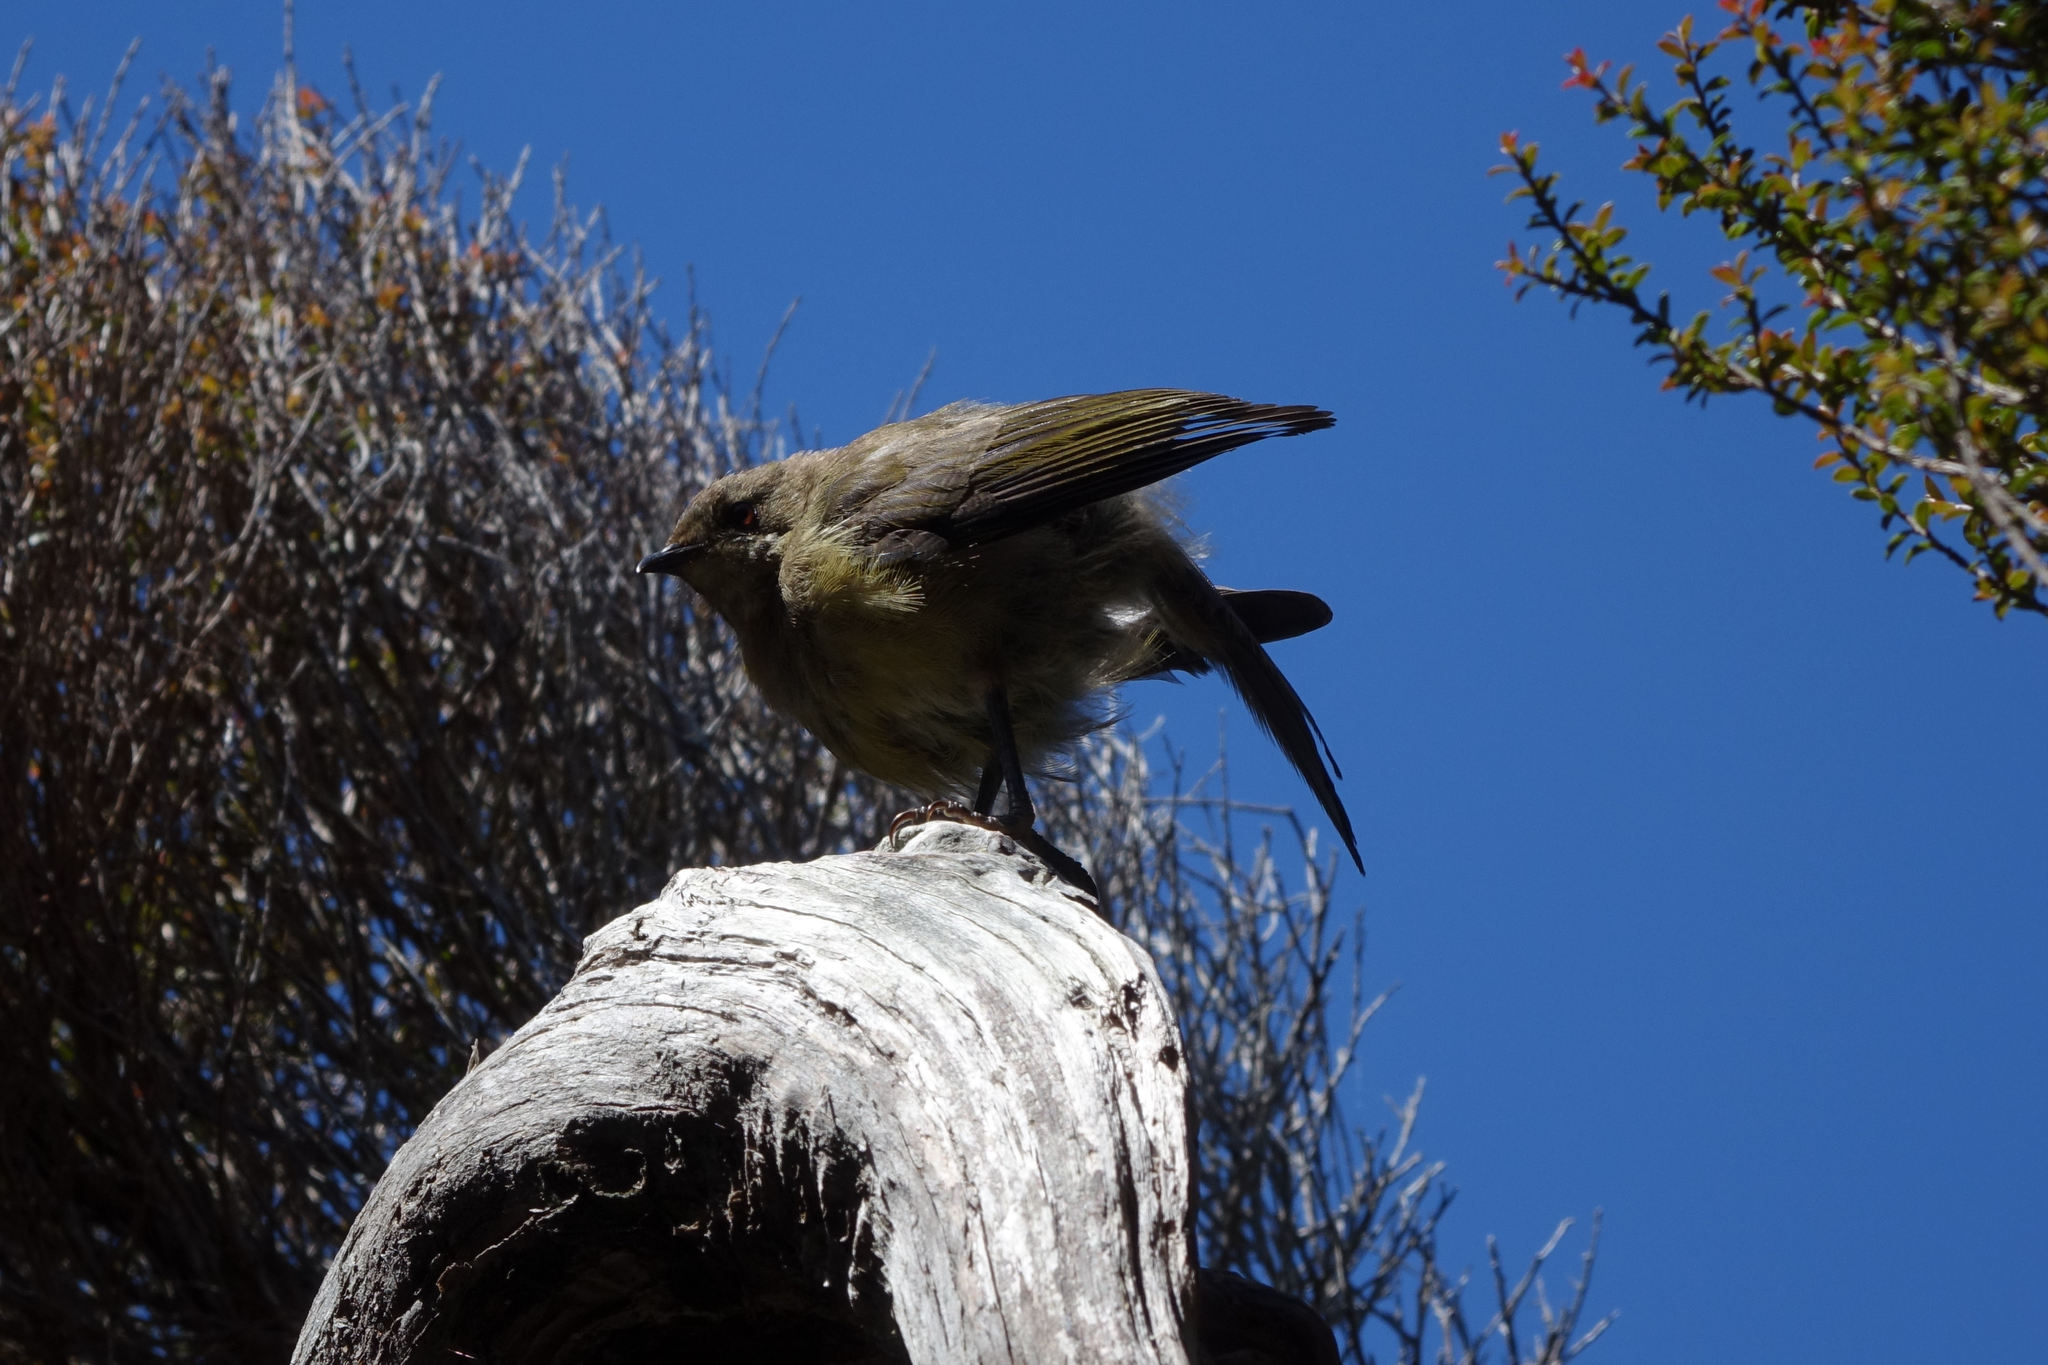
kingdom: Animalia
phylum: Chordata
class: Aves
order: Passeriformes
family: Meliphagidae
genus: Anthornis
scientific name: Anthornis melanura
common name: New zealand bellbird
